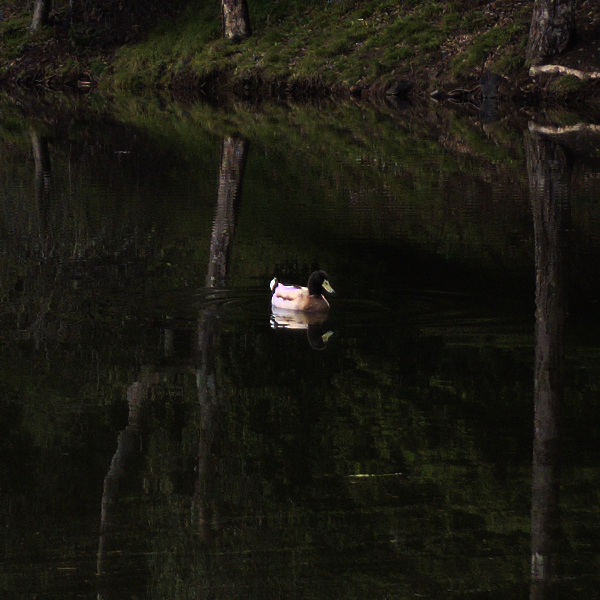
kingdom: Animalia
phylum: Chordata
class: Aves
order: Anseriformes
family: Anatidae
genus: Anas
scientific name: Anas platyrhynchos
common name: Mallard
